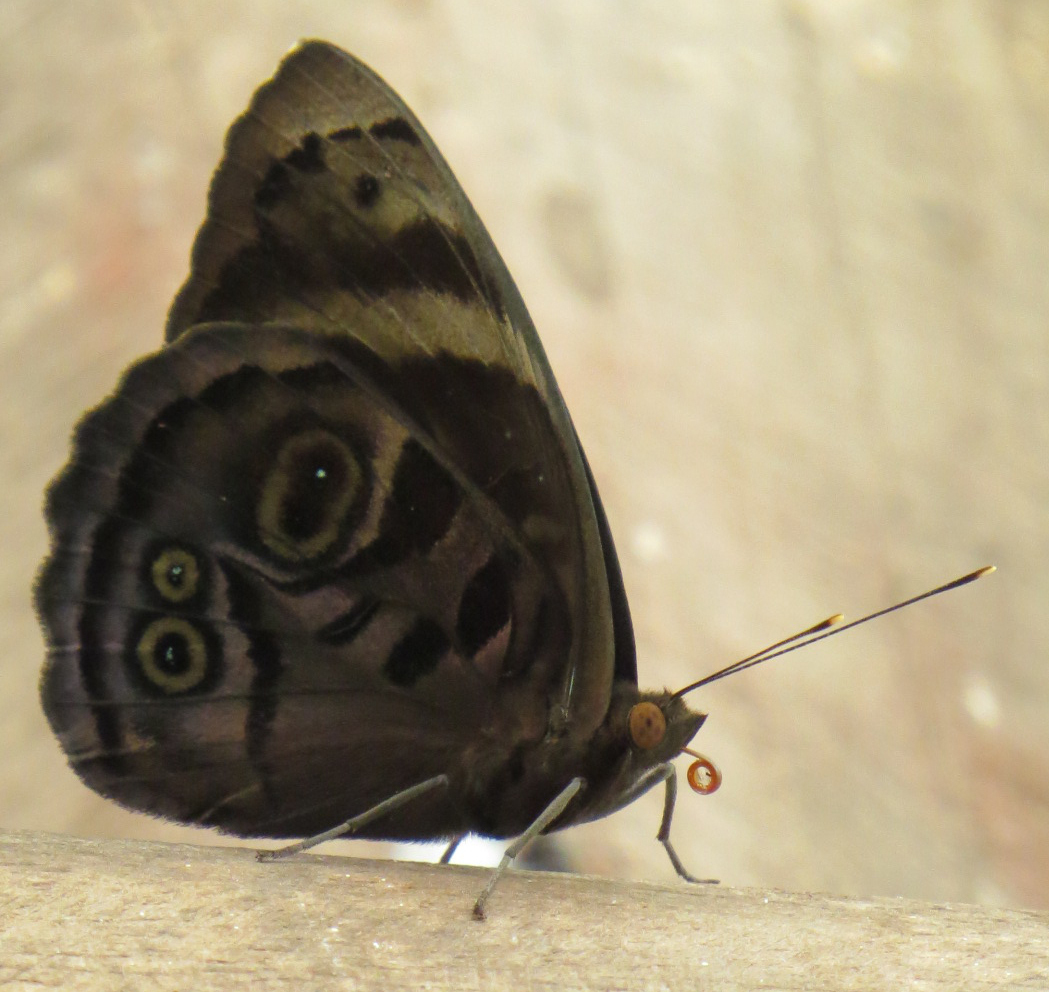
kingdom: Animalia
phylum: Arthropoda
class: Insecta
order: Lepidoptera
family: Nymphalidae
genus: Eunica
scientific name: Eunica alcmena
